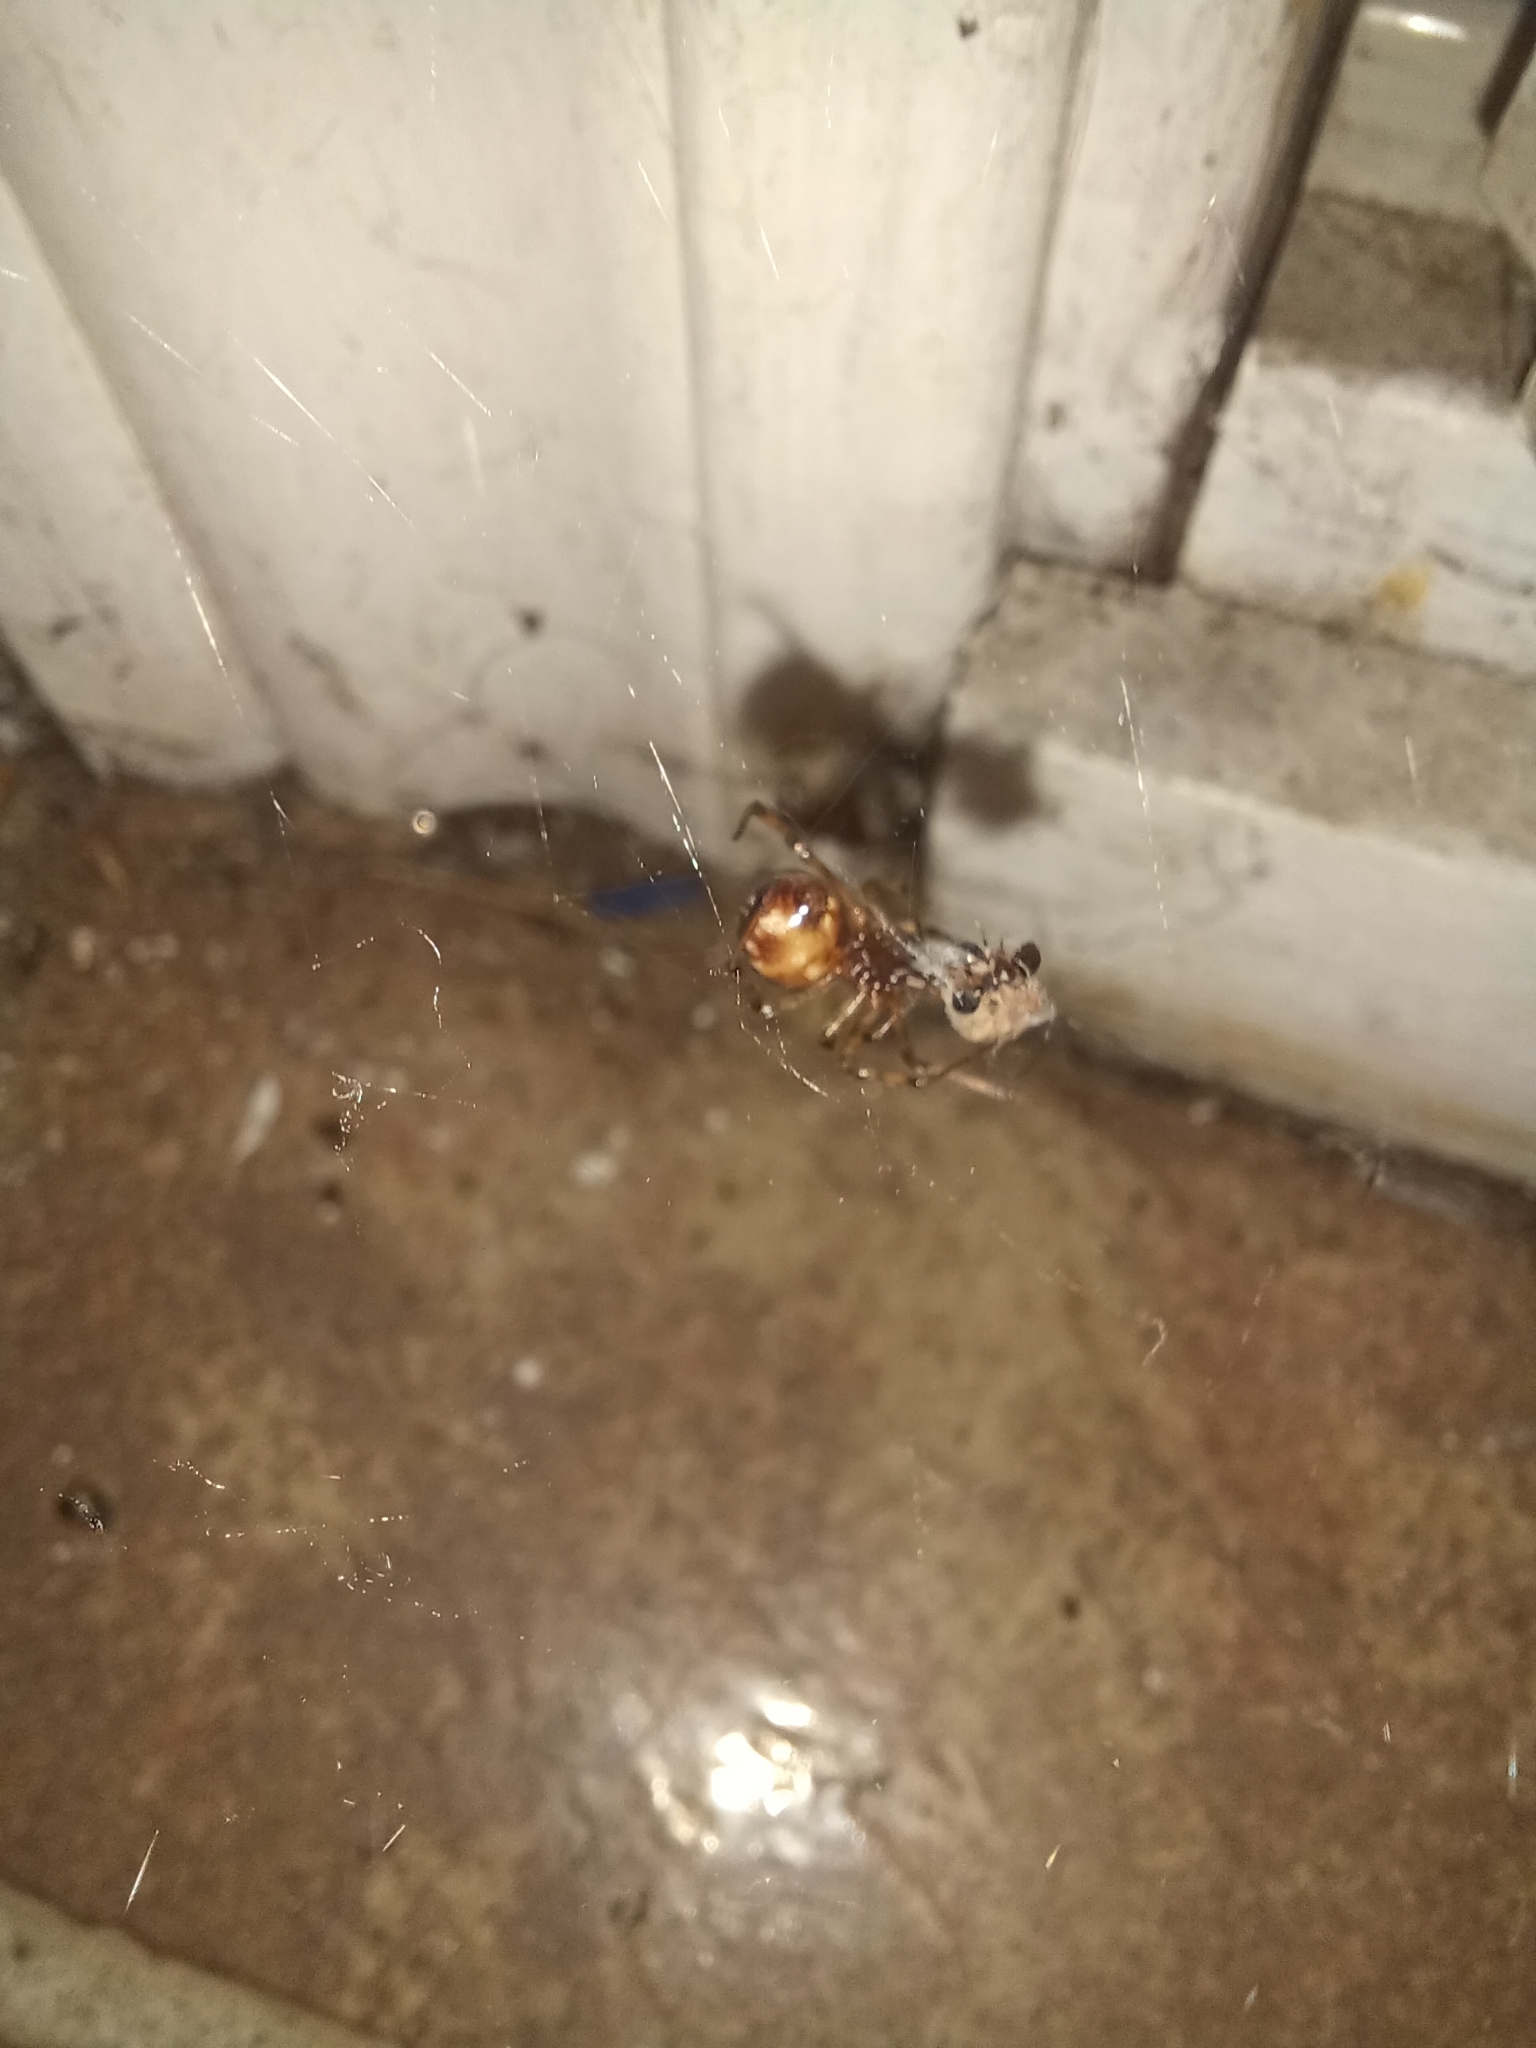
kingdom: Animalia
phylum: Arthropoda
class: Arachnida
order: Araneae
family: Theridiidae
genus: Steatoda
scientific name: Steatoda triangulosa
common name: Triangulate bud spider
